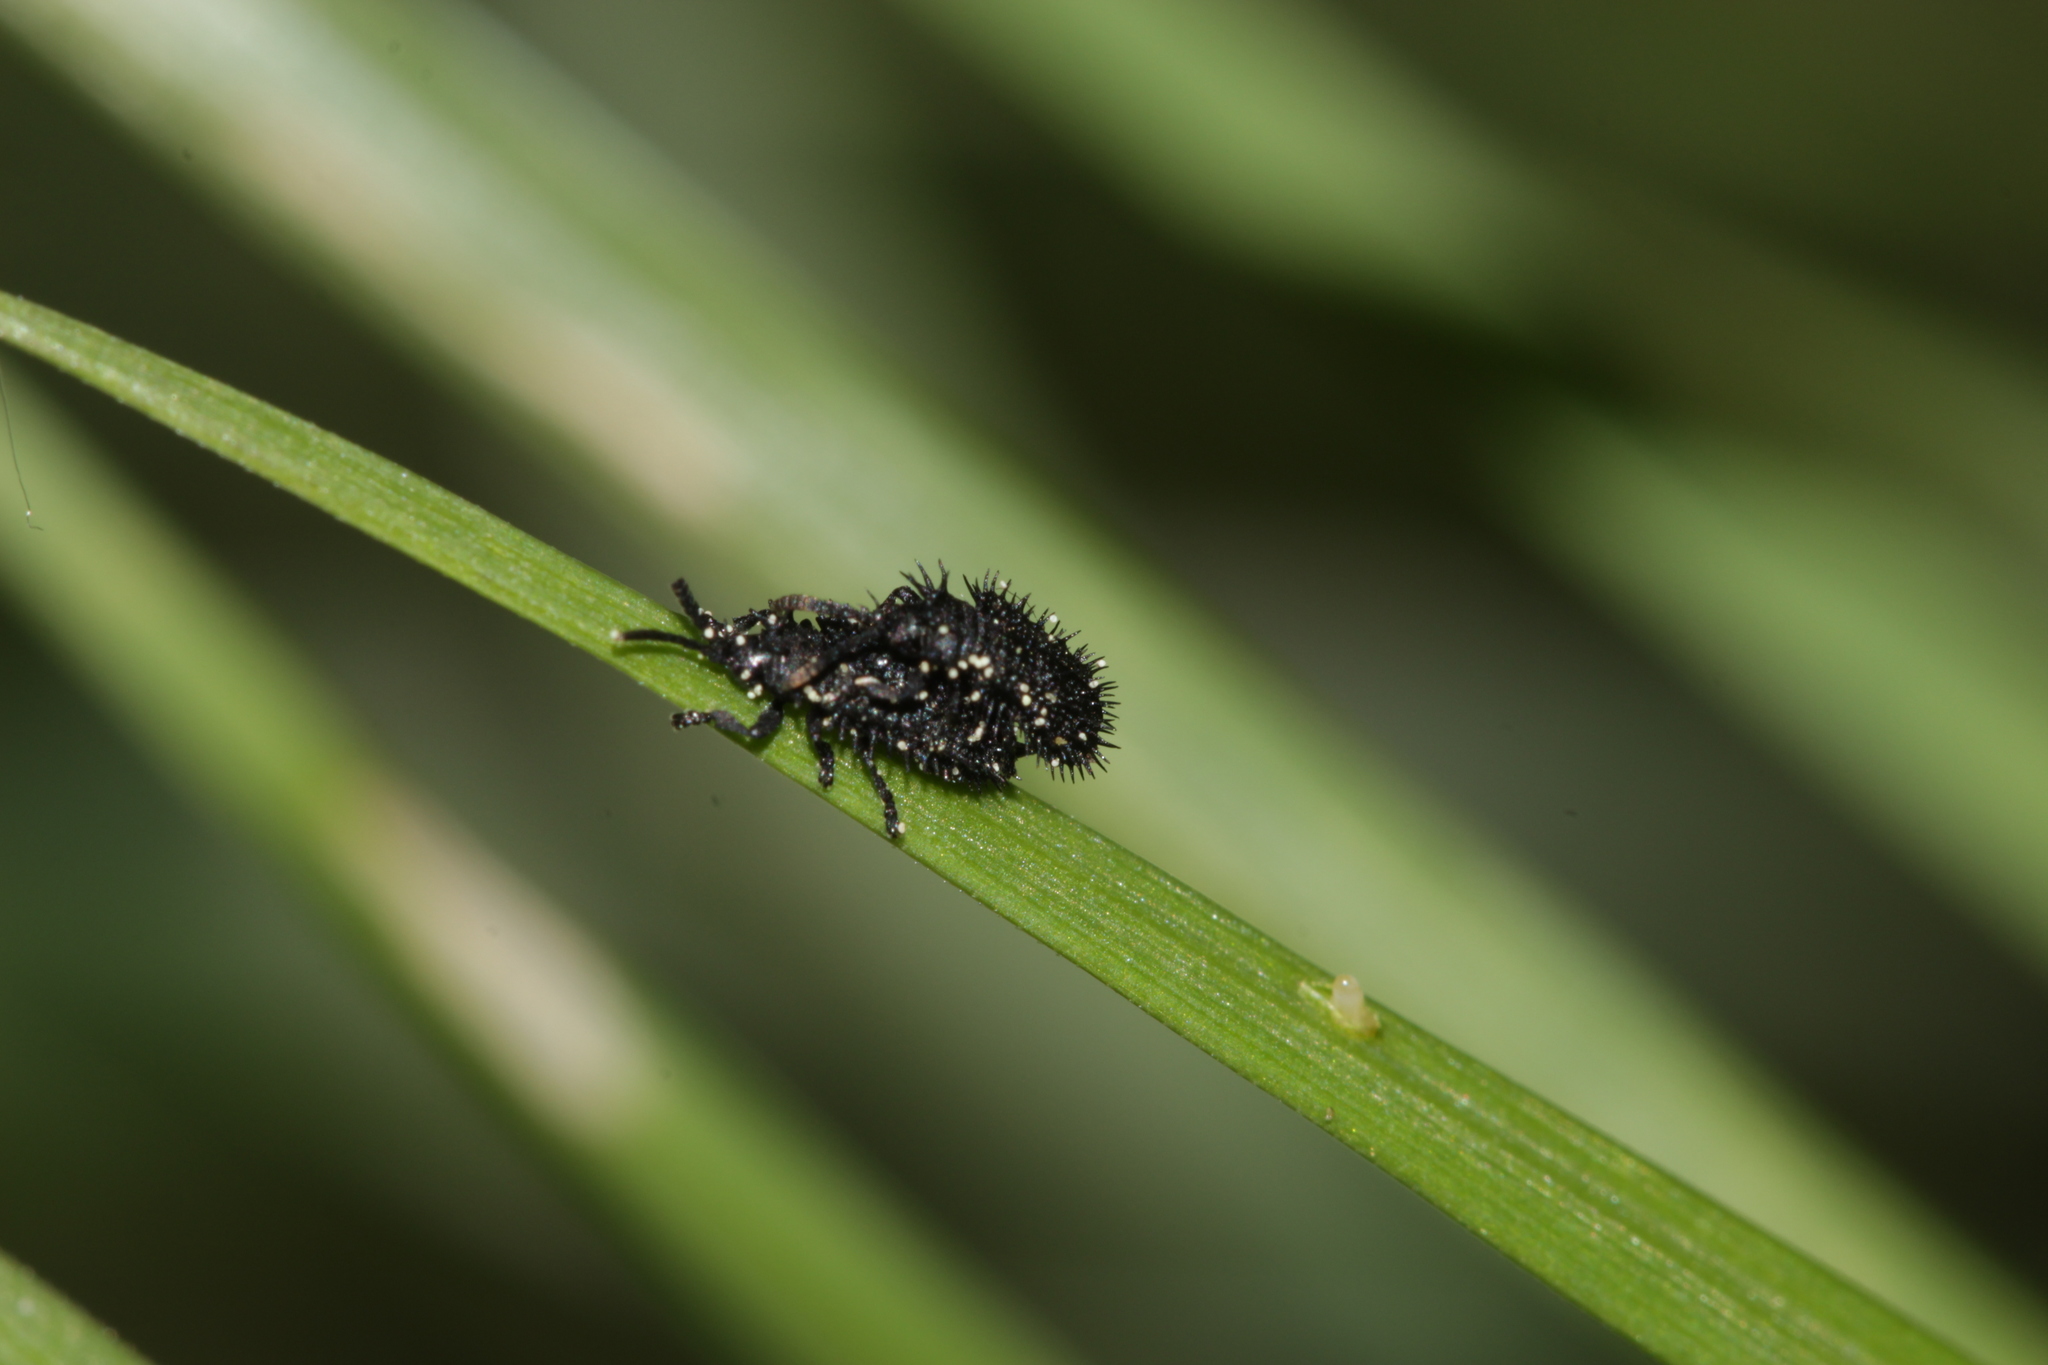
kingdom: Animalia
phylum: Arthropoda
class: Insecta
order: Coleoptera
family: Chrysomelidae
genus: Hispa
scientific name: Hispa atra
